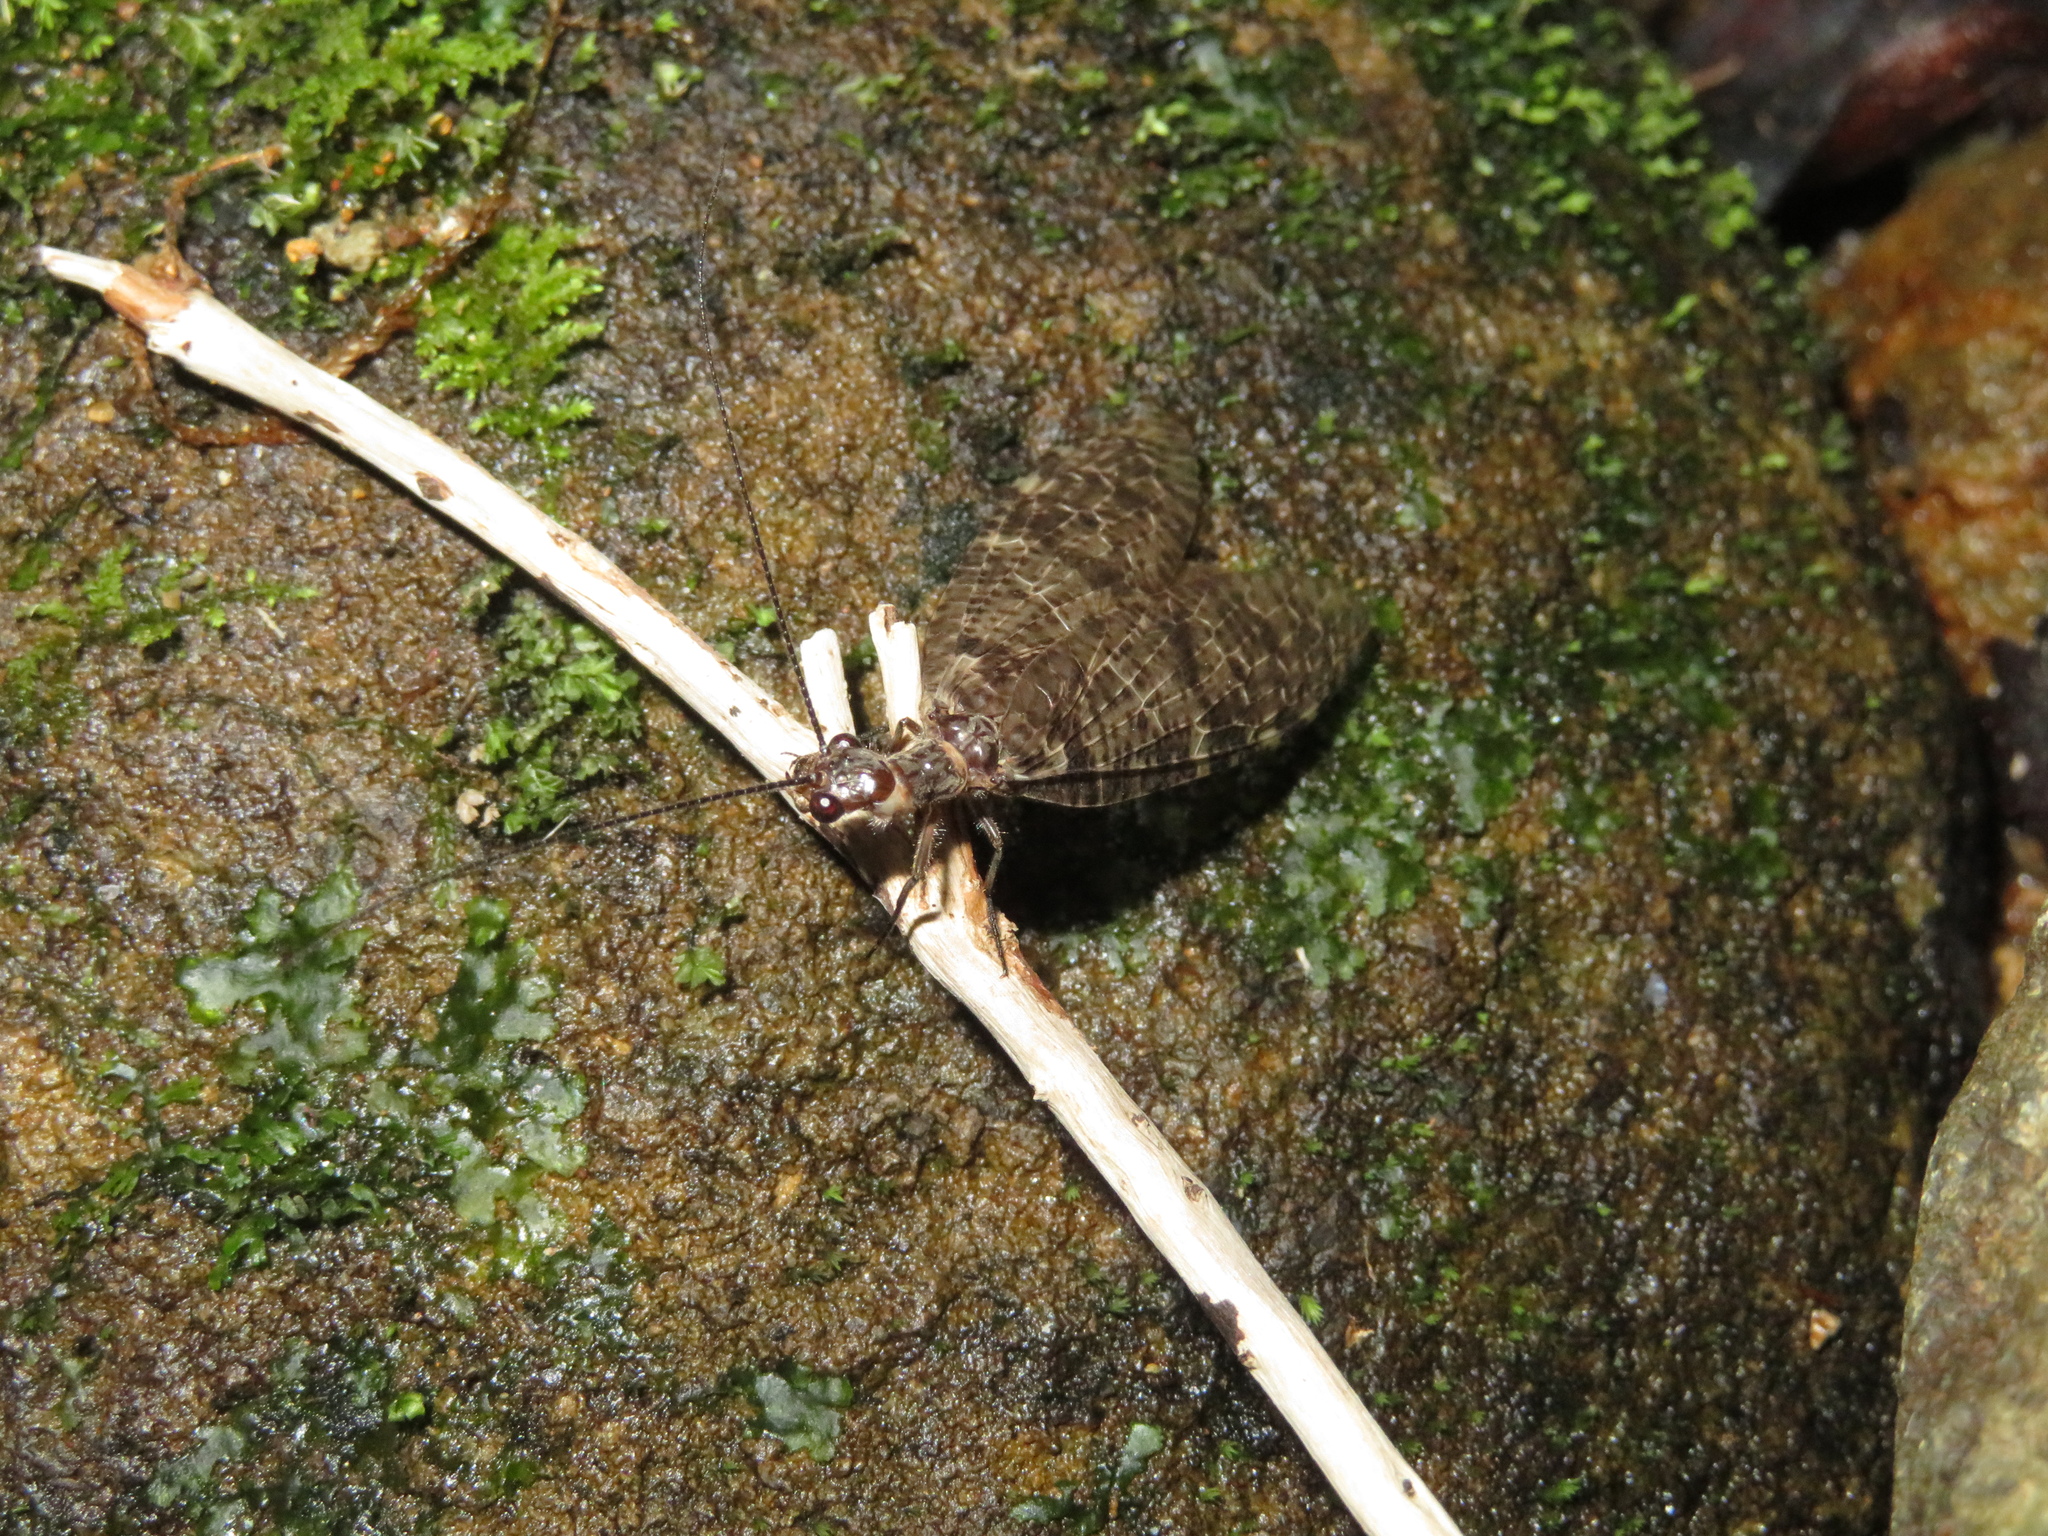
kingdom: Animalia
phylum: Arthropoda
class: Insecta
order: Megaloptera
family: Corydalidae
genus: Archichauliodes
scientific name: Archichauliodes diversus
